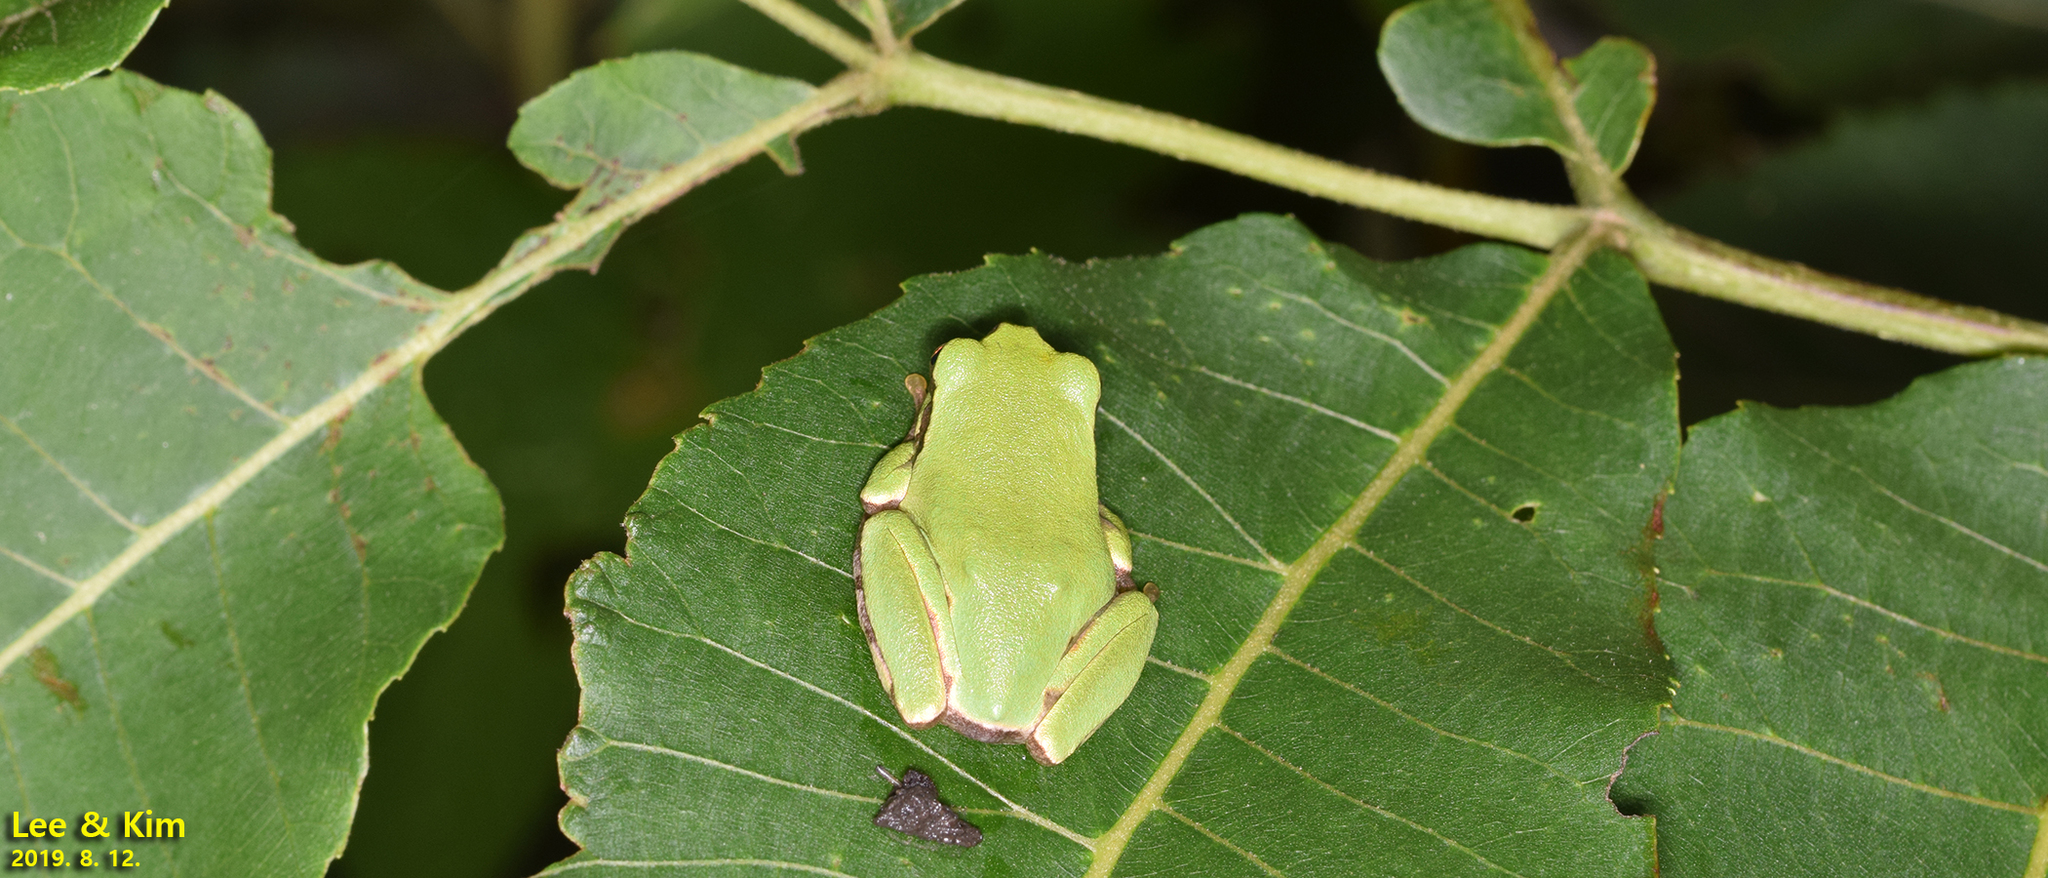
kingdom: Animalia
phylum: Chordata
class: Amphibia
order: Anura
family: Hylidae
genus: Dryophytes
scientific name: Dryophytes japonicus
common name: Japanese treefrog
